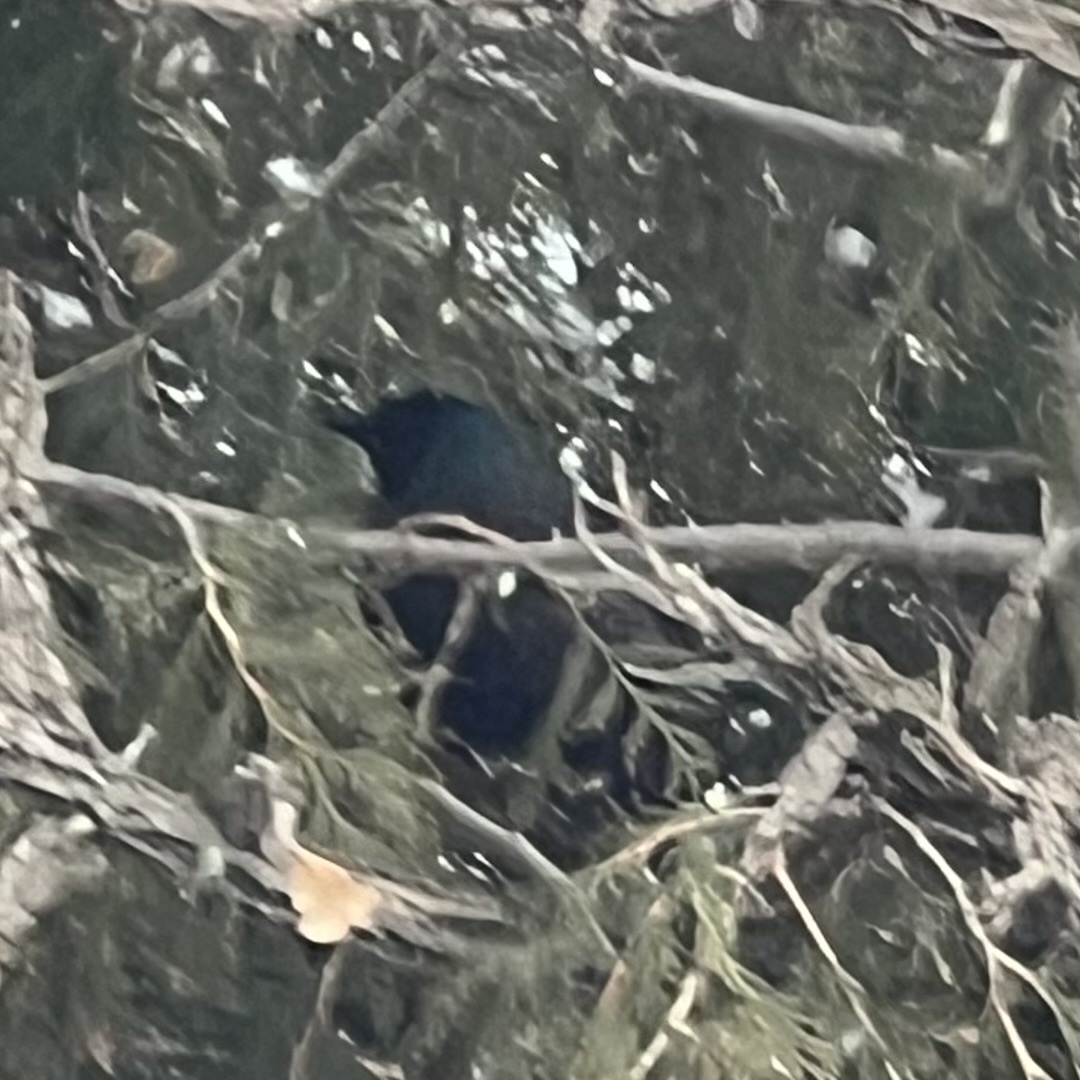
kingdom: Animalia
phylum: Chordata
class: Aves
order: Passeriformes
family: Icteridae
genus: Quiscalus
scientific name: Quiscalus quiscula
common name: Common grackle
